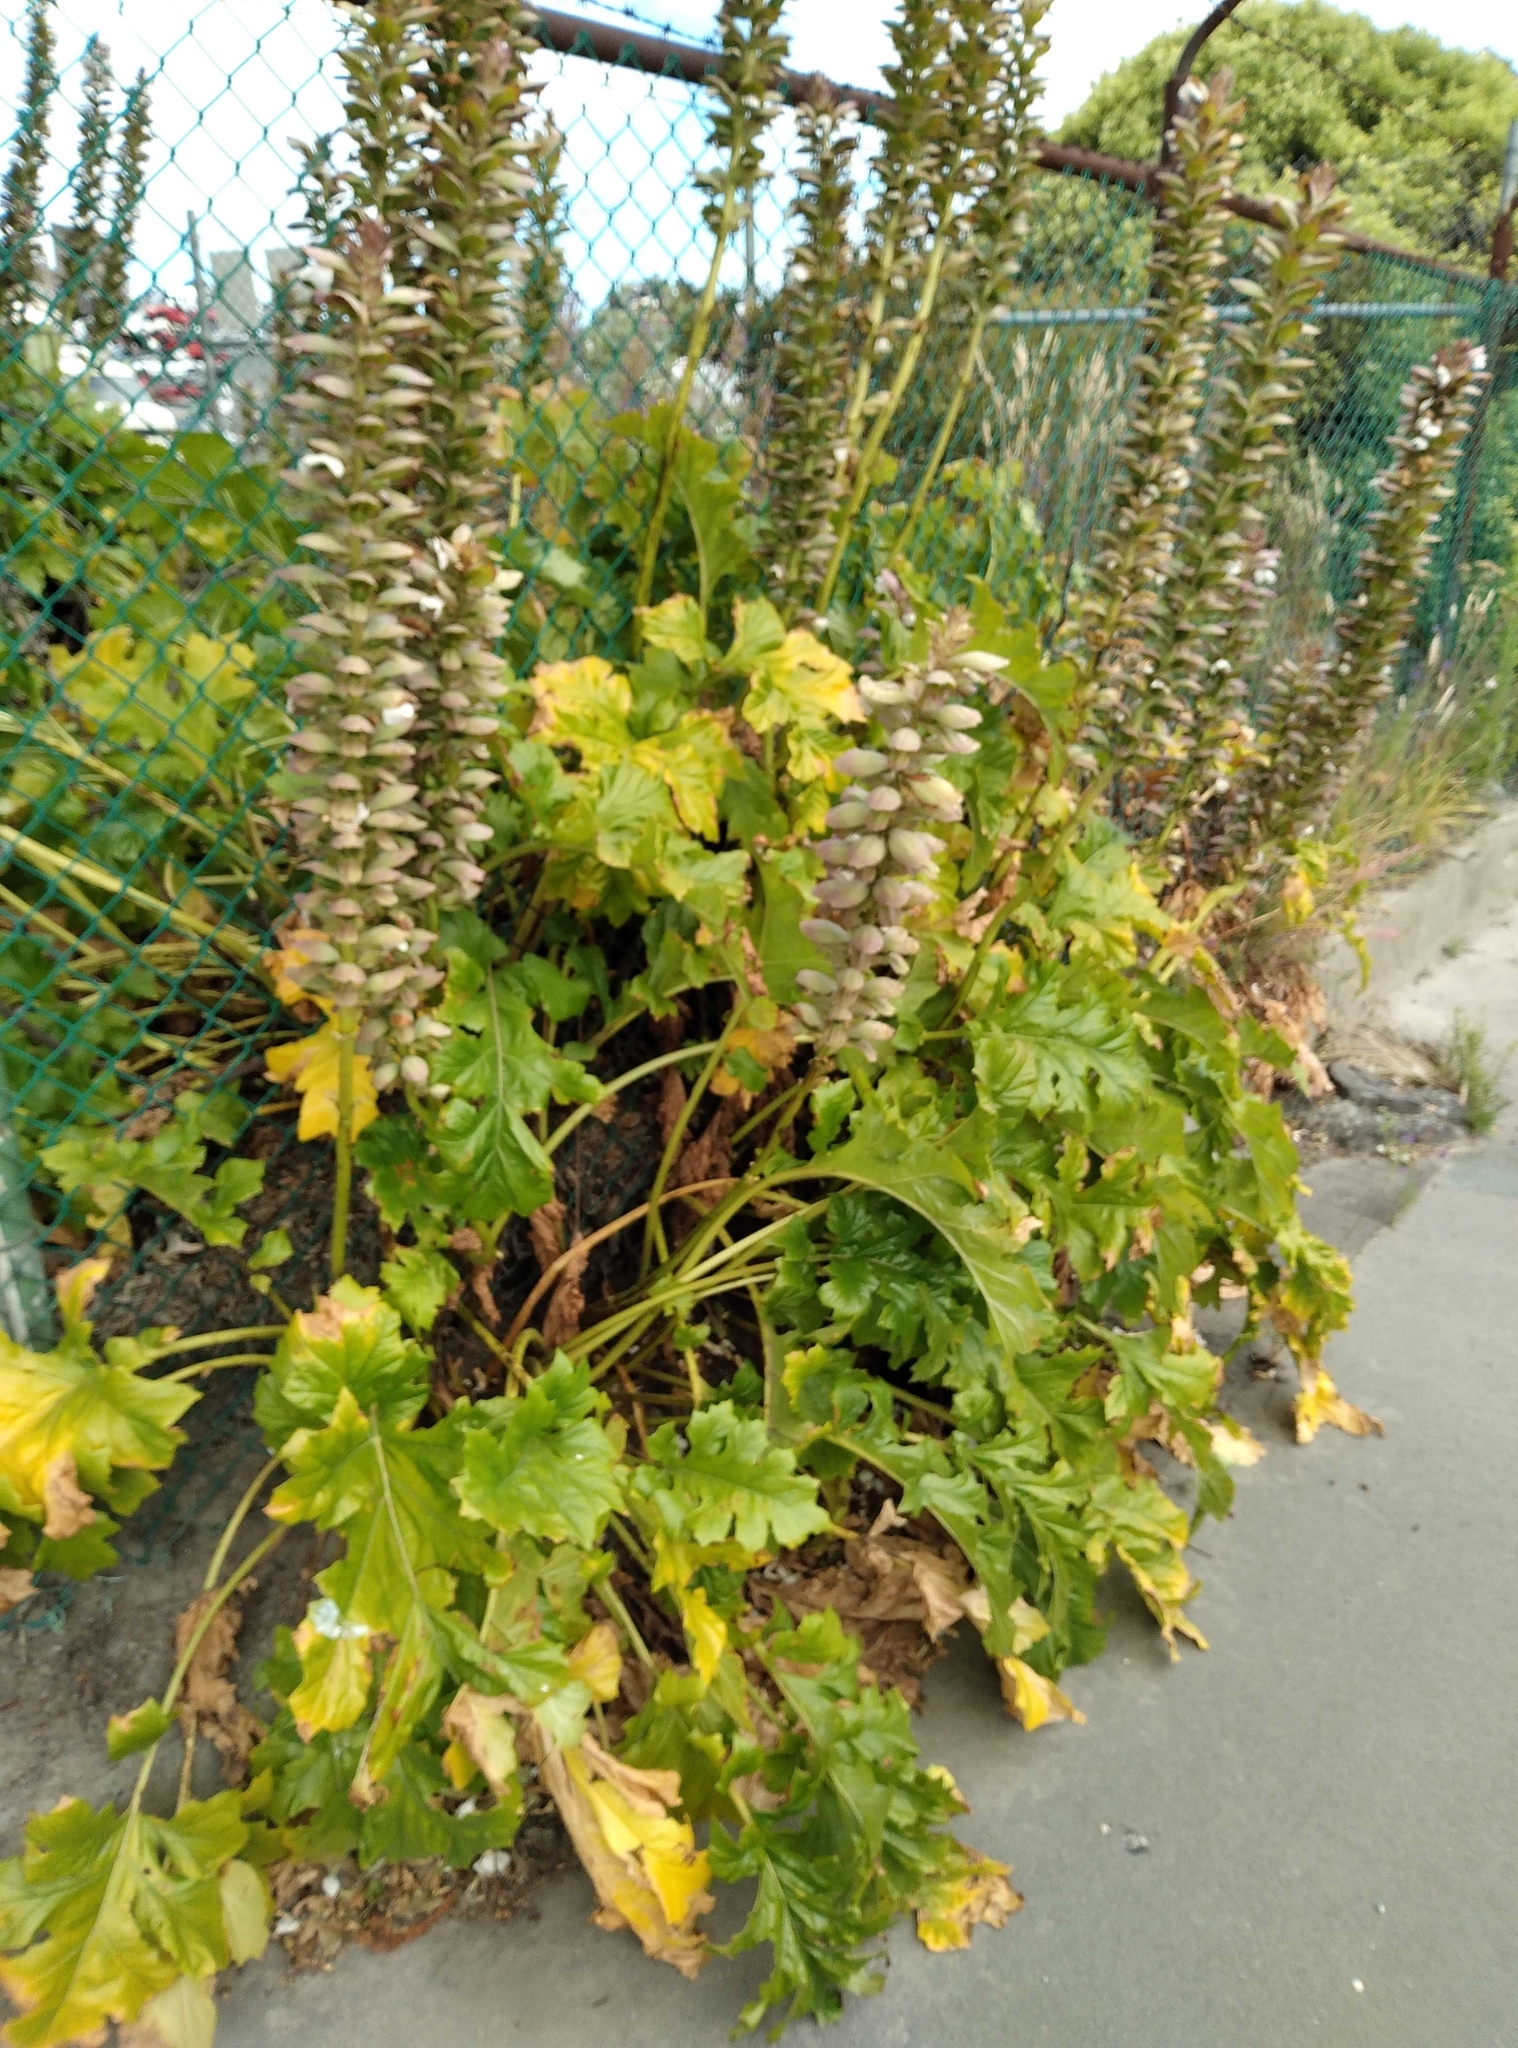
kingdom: Plantae
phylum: Tracheophyta
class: Magnoliopsida
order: Lamiales
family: Acanthaceae
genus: Acanthus
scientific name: Acanthus mollis
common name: Bear's-breech
